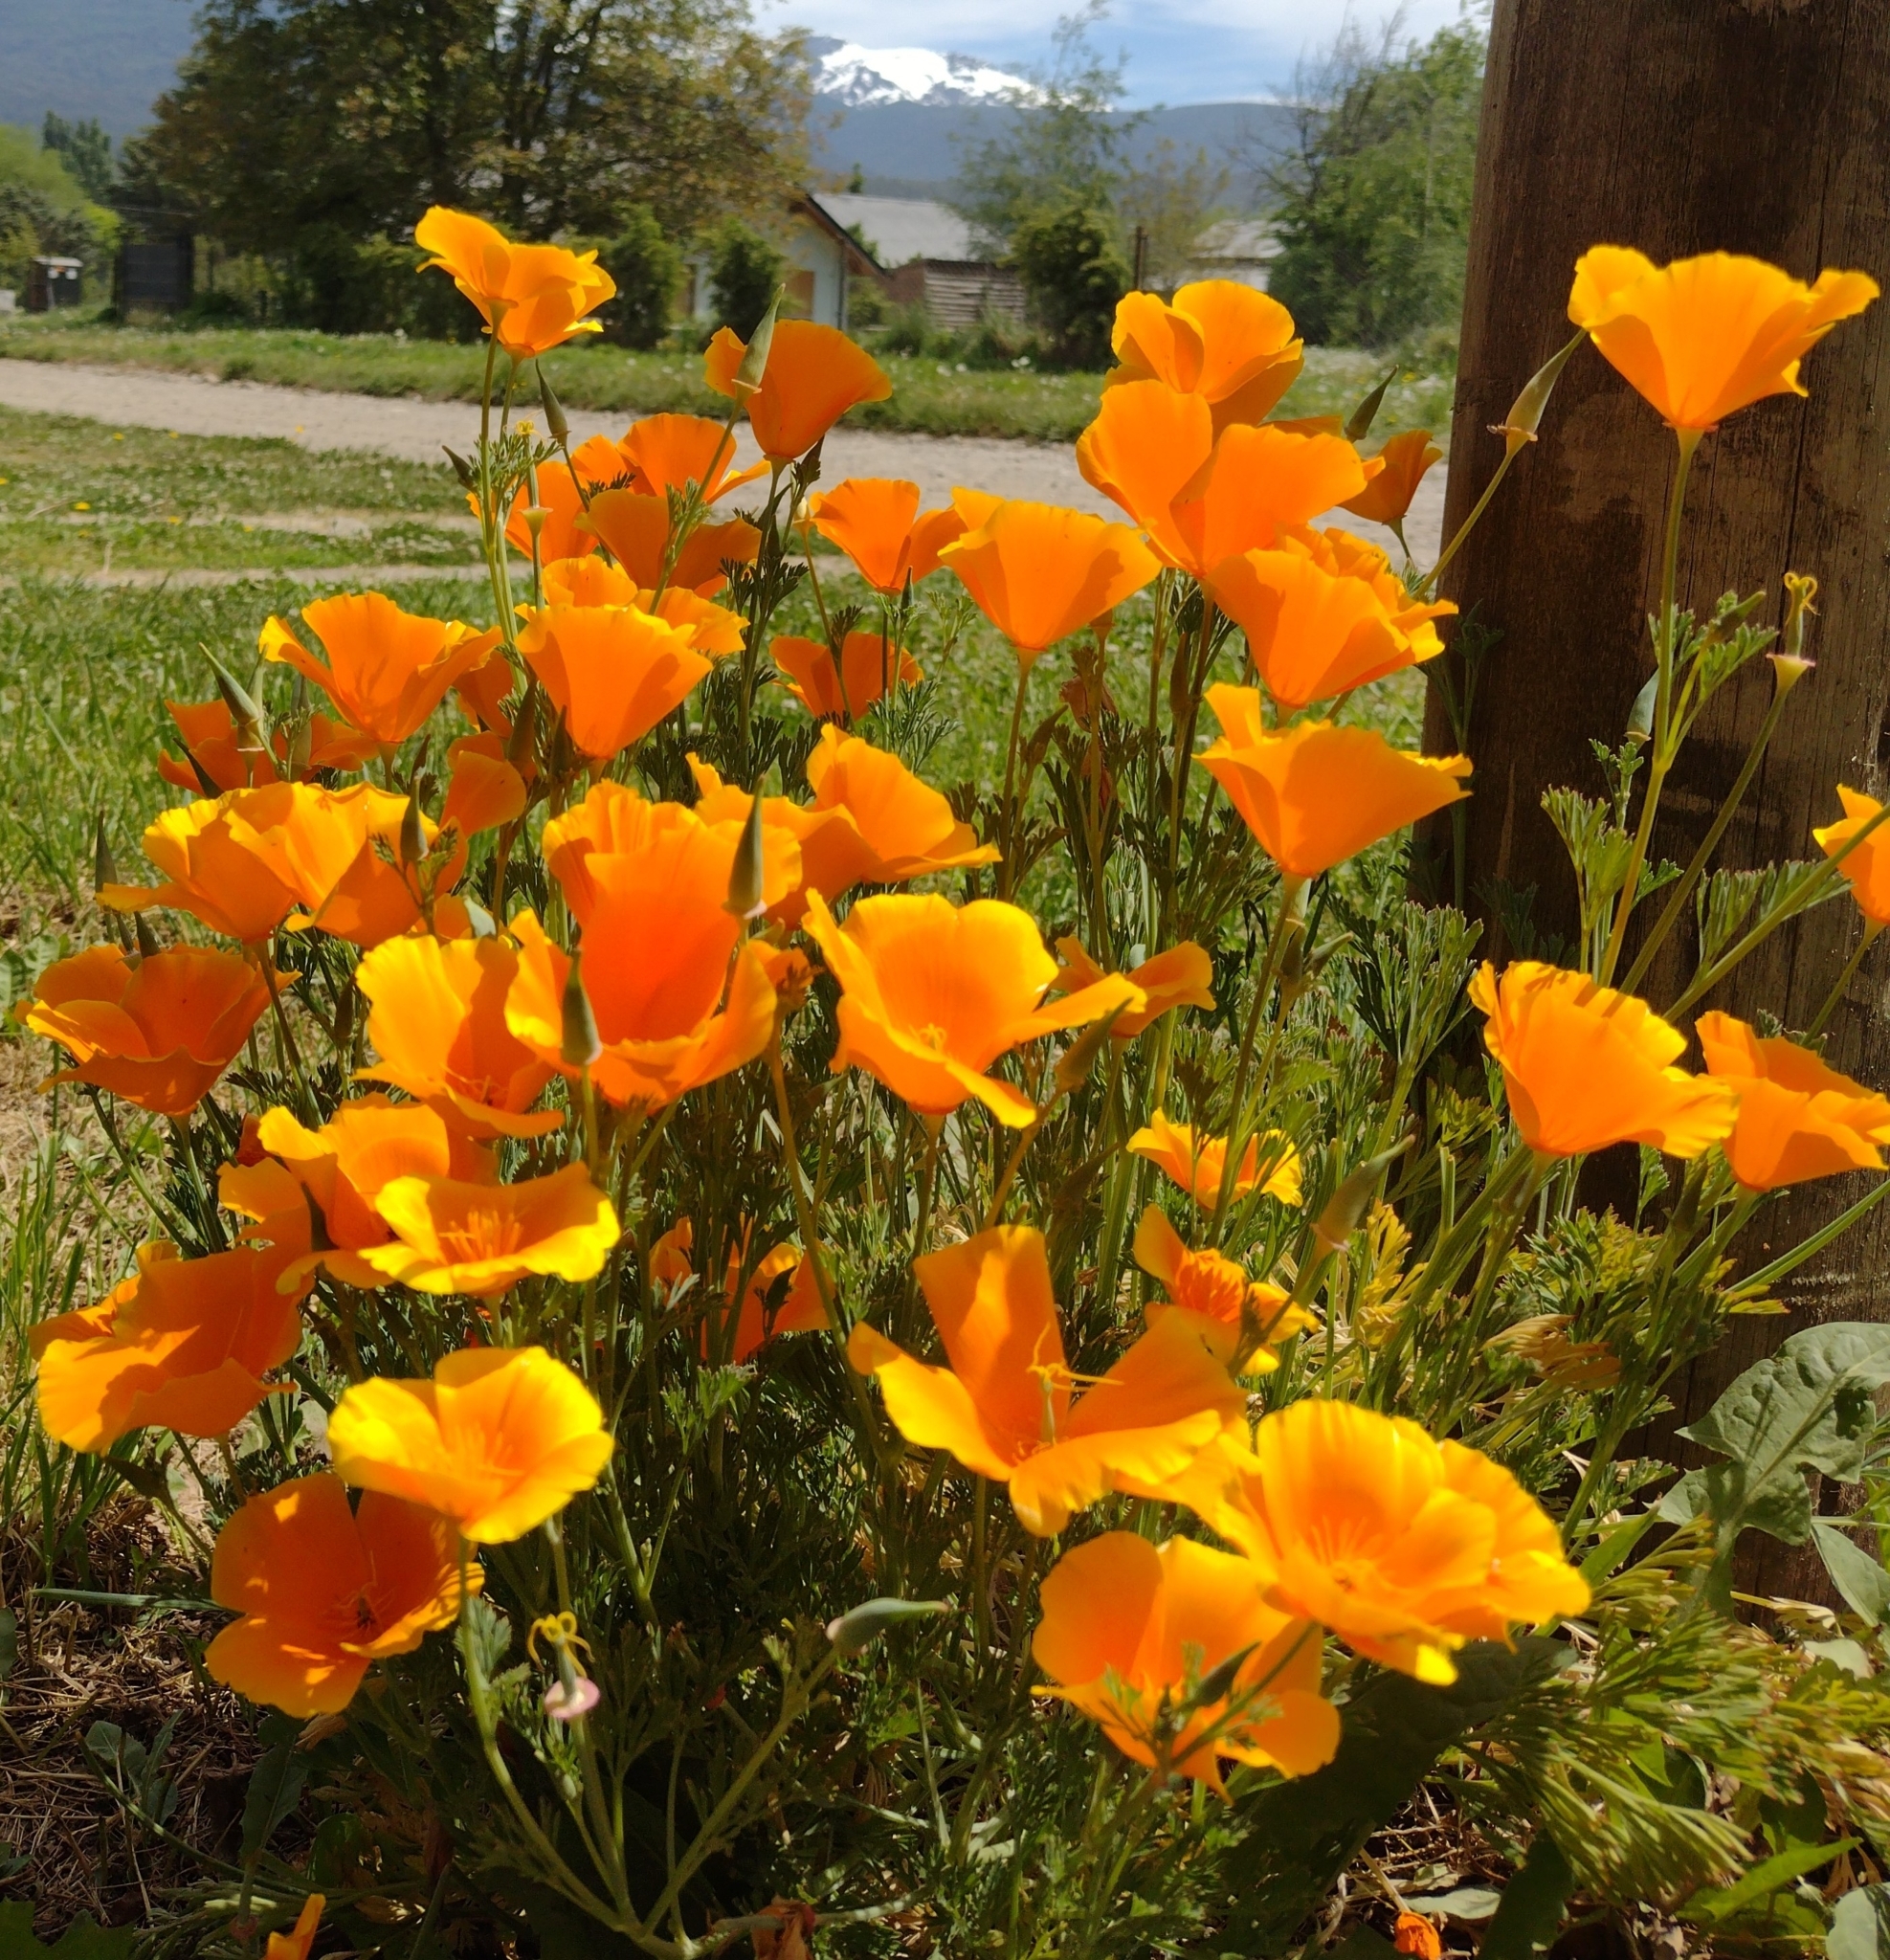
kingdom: Plantae
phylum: Tracheophyta
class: Magnoliopsida
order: Ranunculales
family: Papaveraceae
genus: Eschscholzia
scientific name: Eschscholzia californica
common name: California poppy
